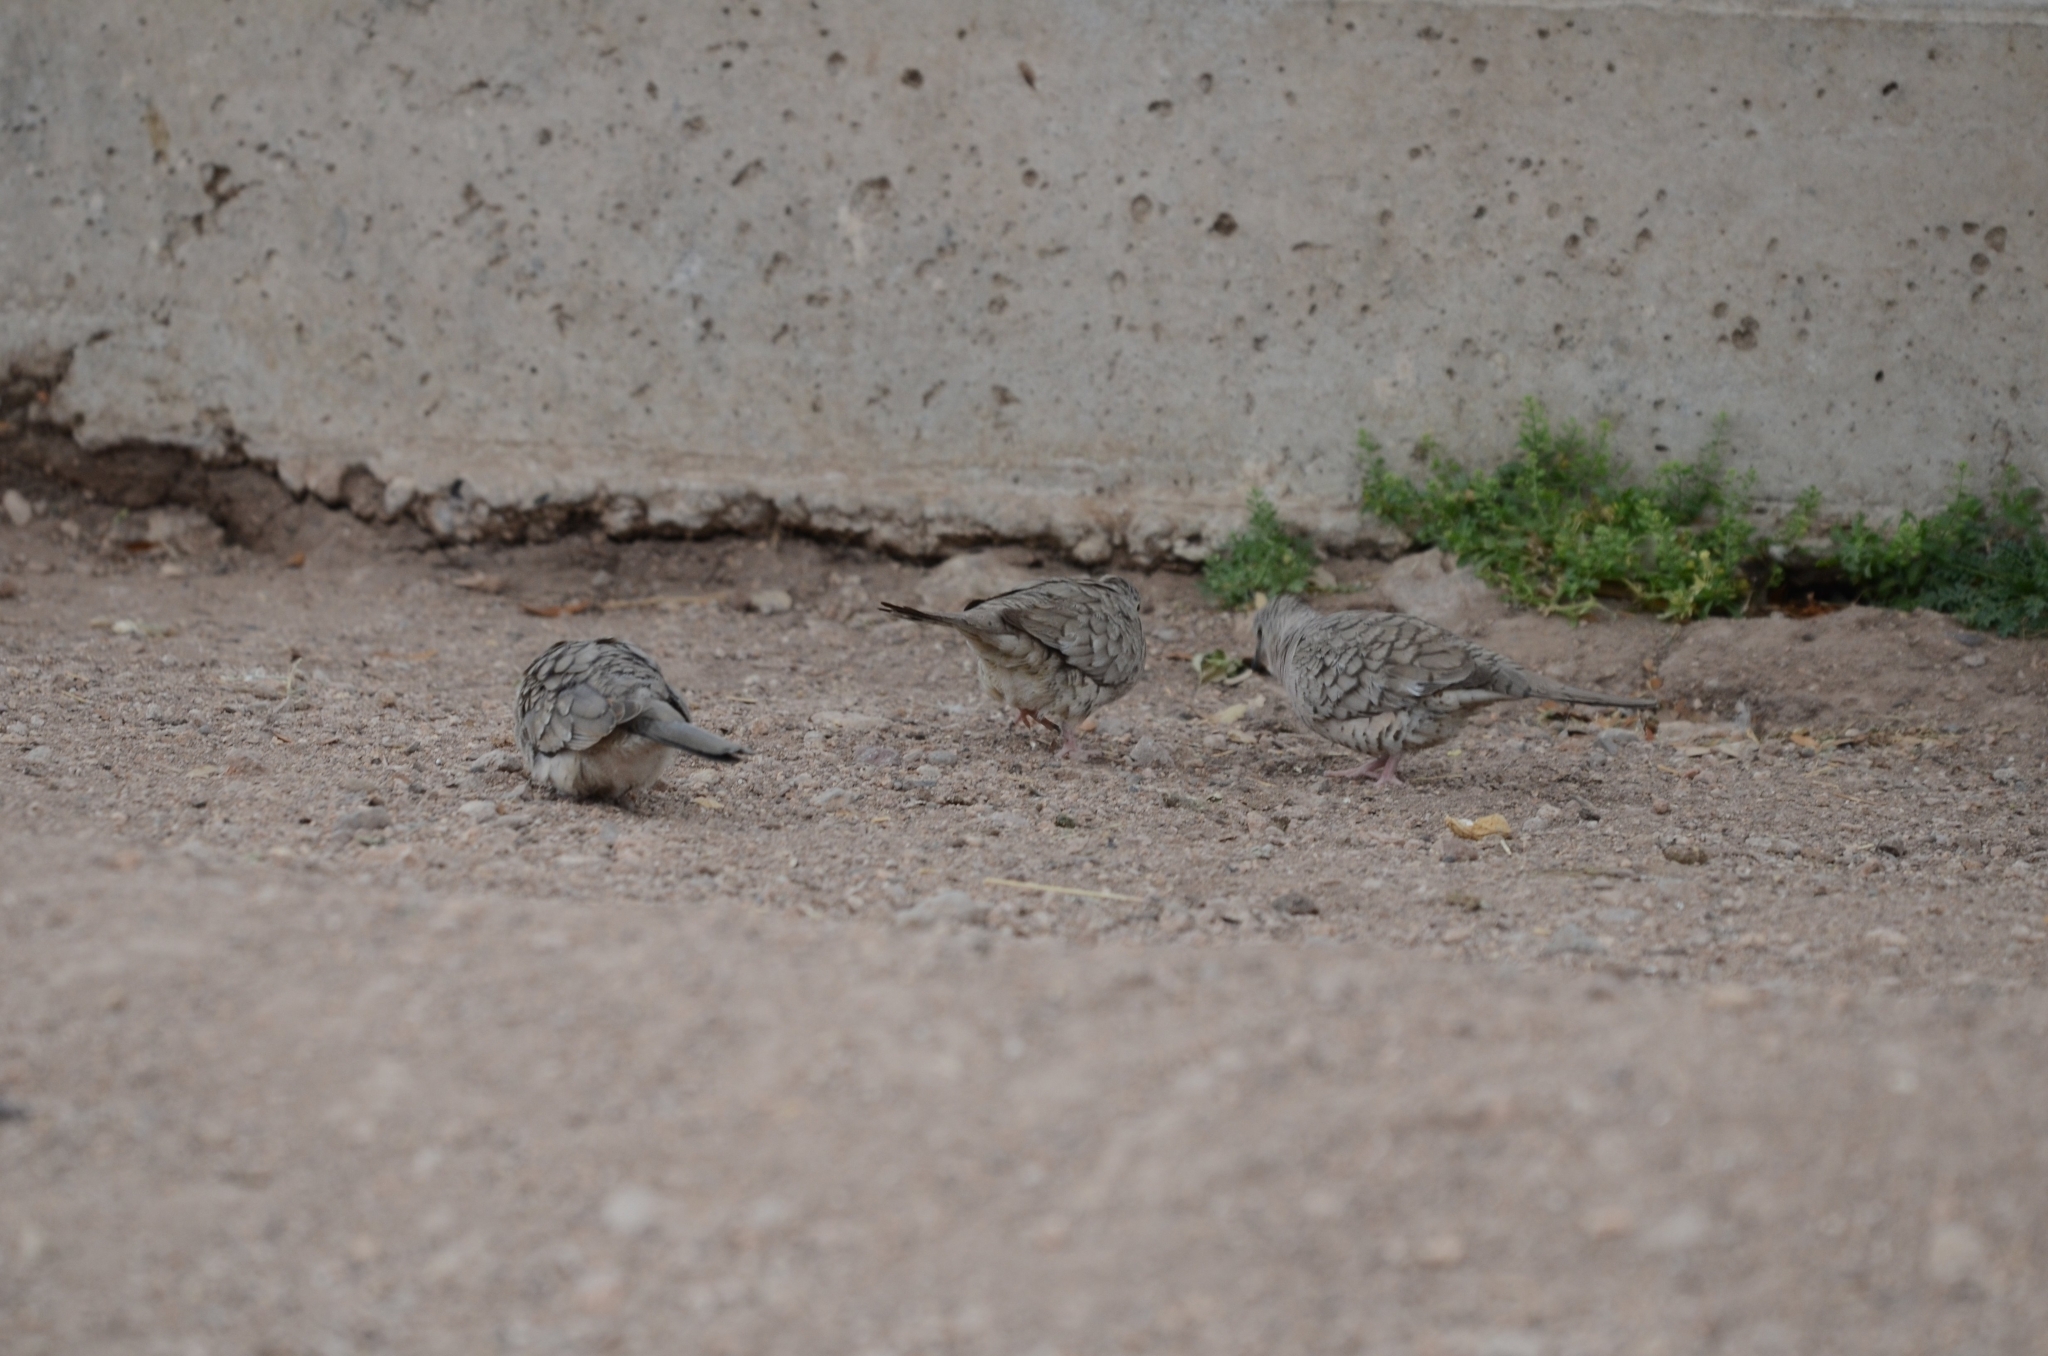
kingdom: Animalia
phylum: Chordata
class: Aves
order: Columbiformes
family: Columbidae
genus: Columbina
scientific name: Columbina inca
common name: Inca dove
